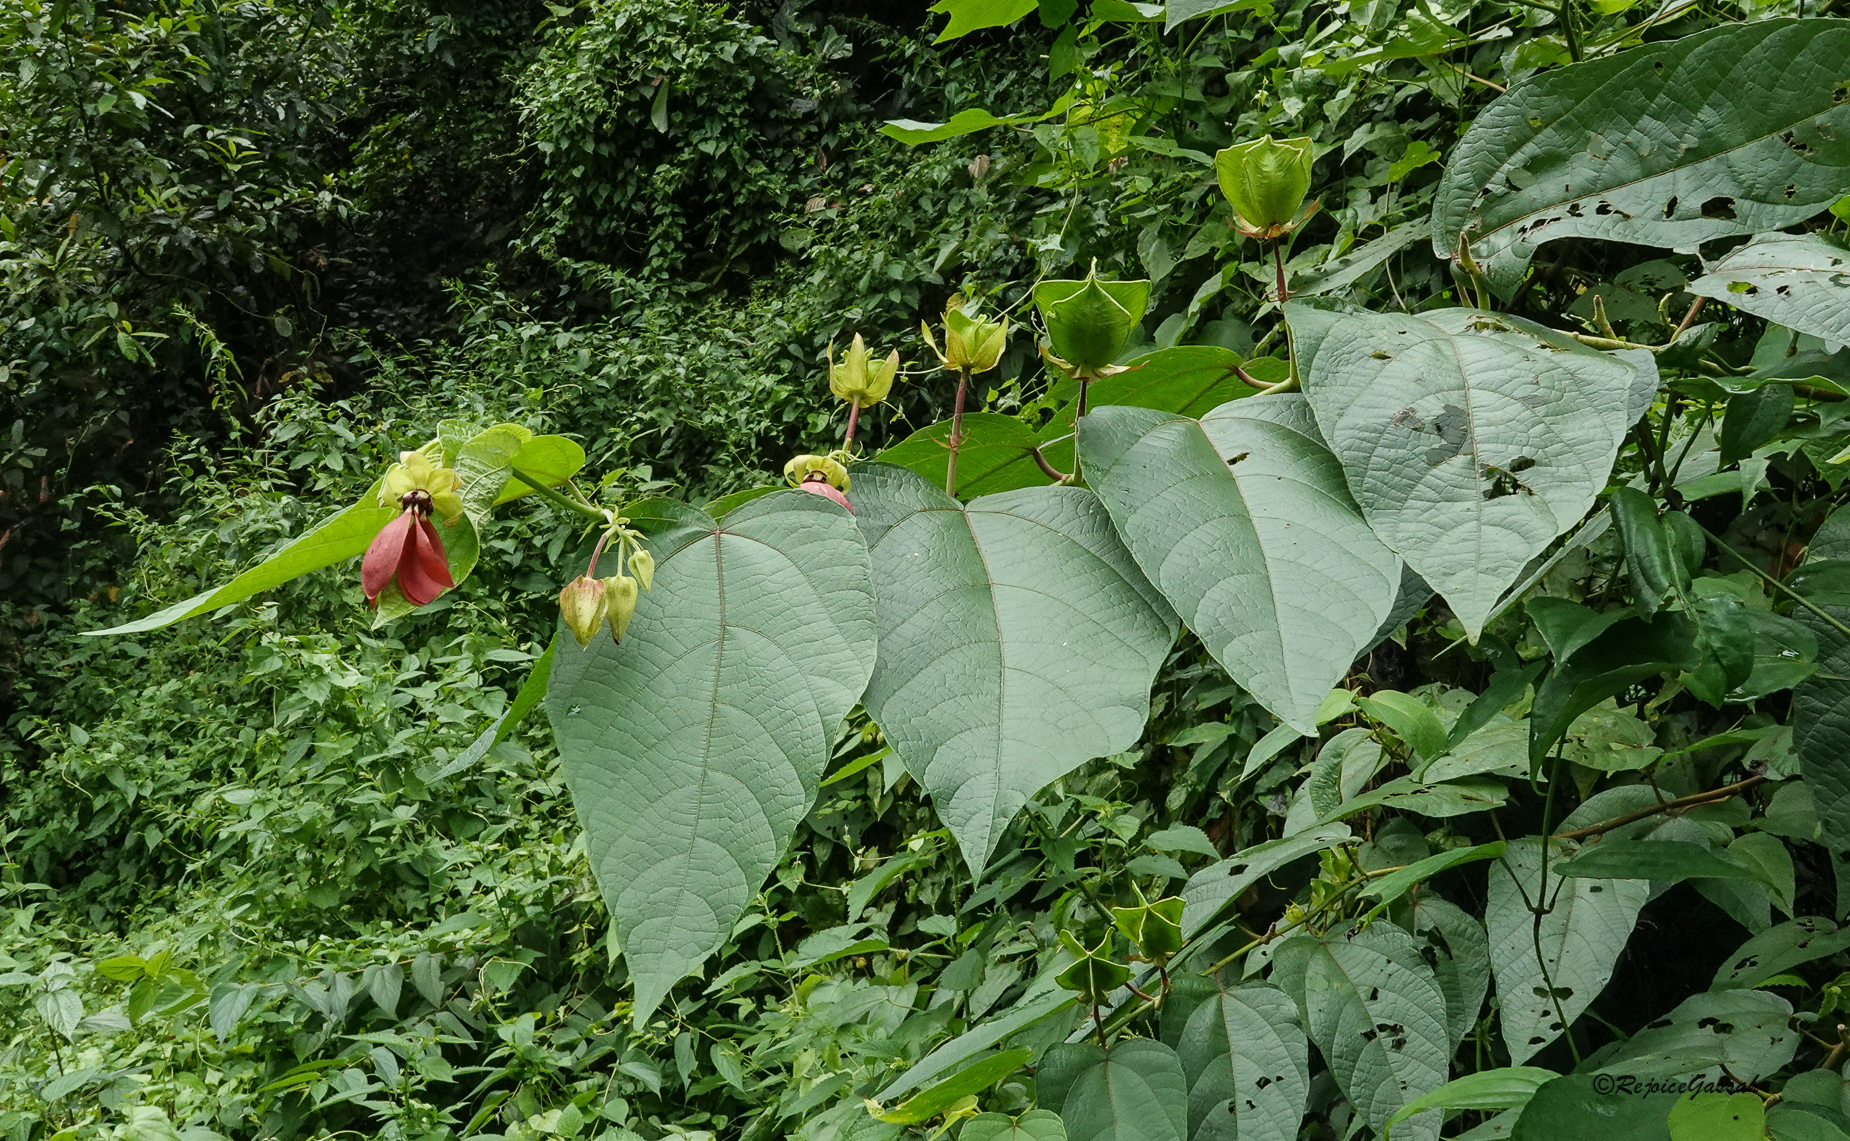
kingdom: Plantae
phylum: Tracheophyta
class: Magnoliopsida
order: Malvales
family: Malvaceae
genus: Abroma
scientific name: Abroma augustum
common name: Devil's-cotton
